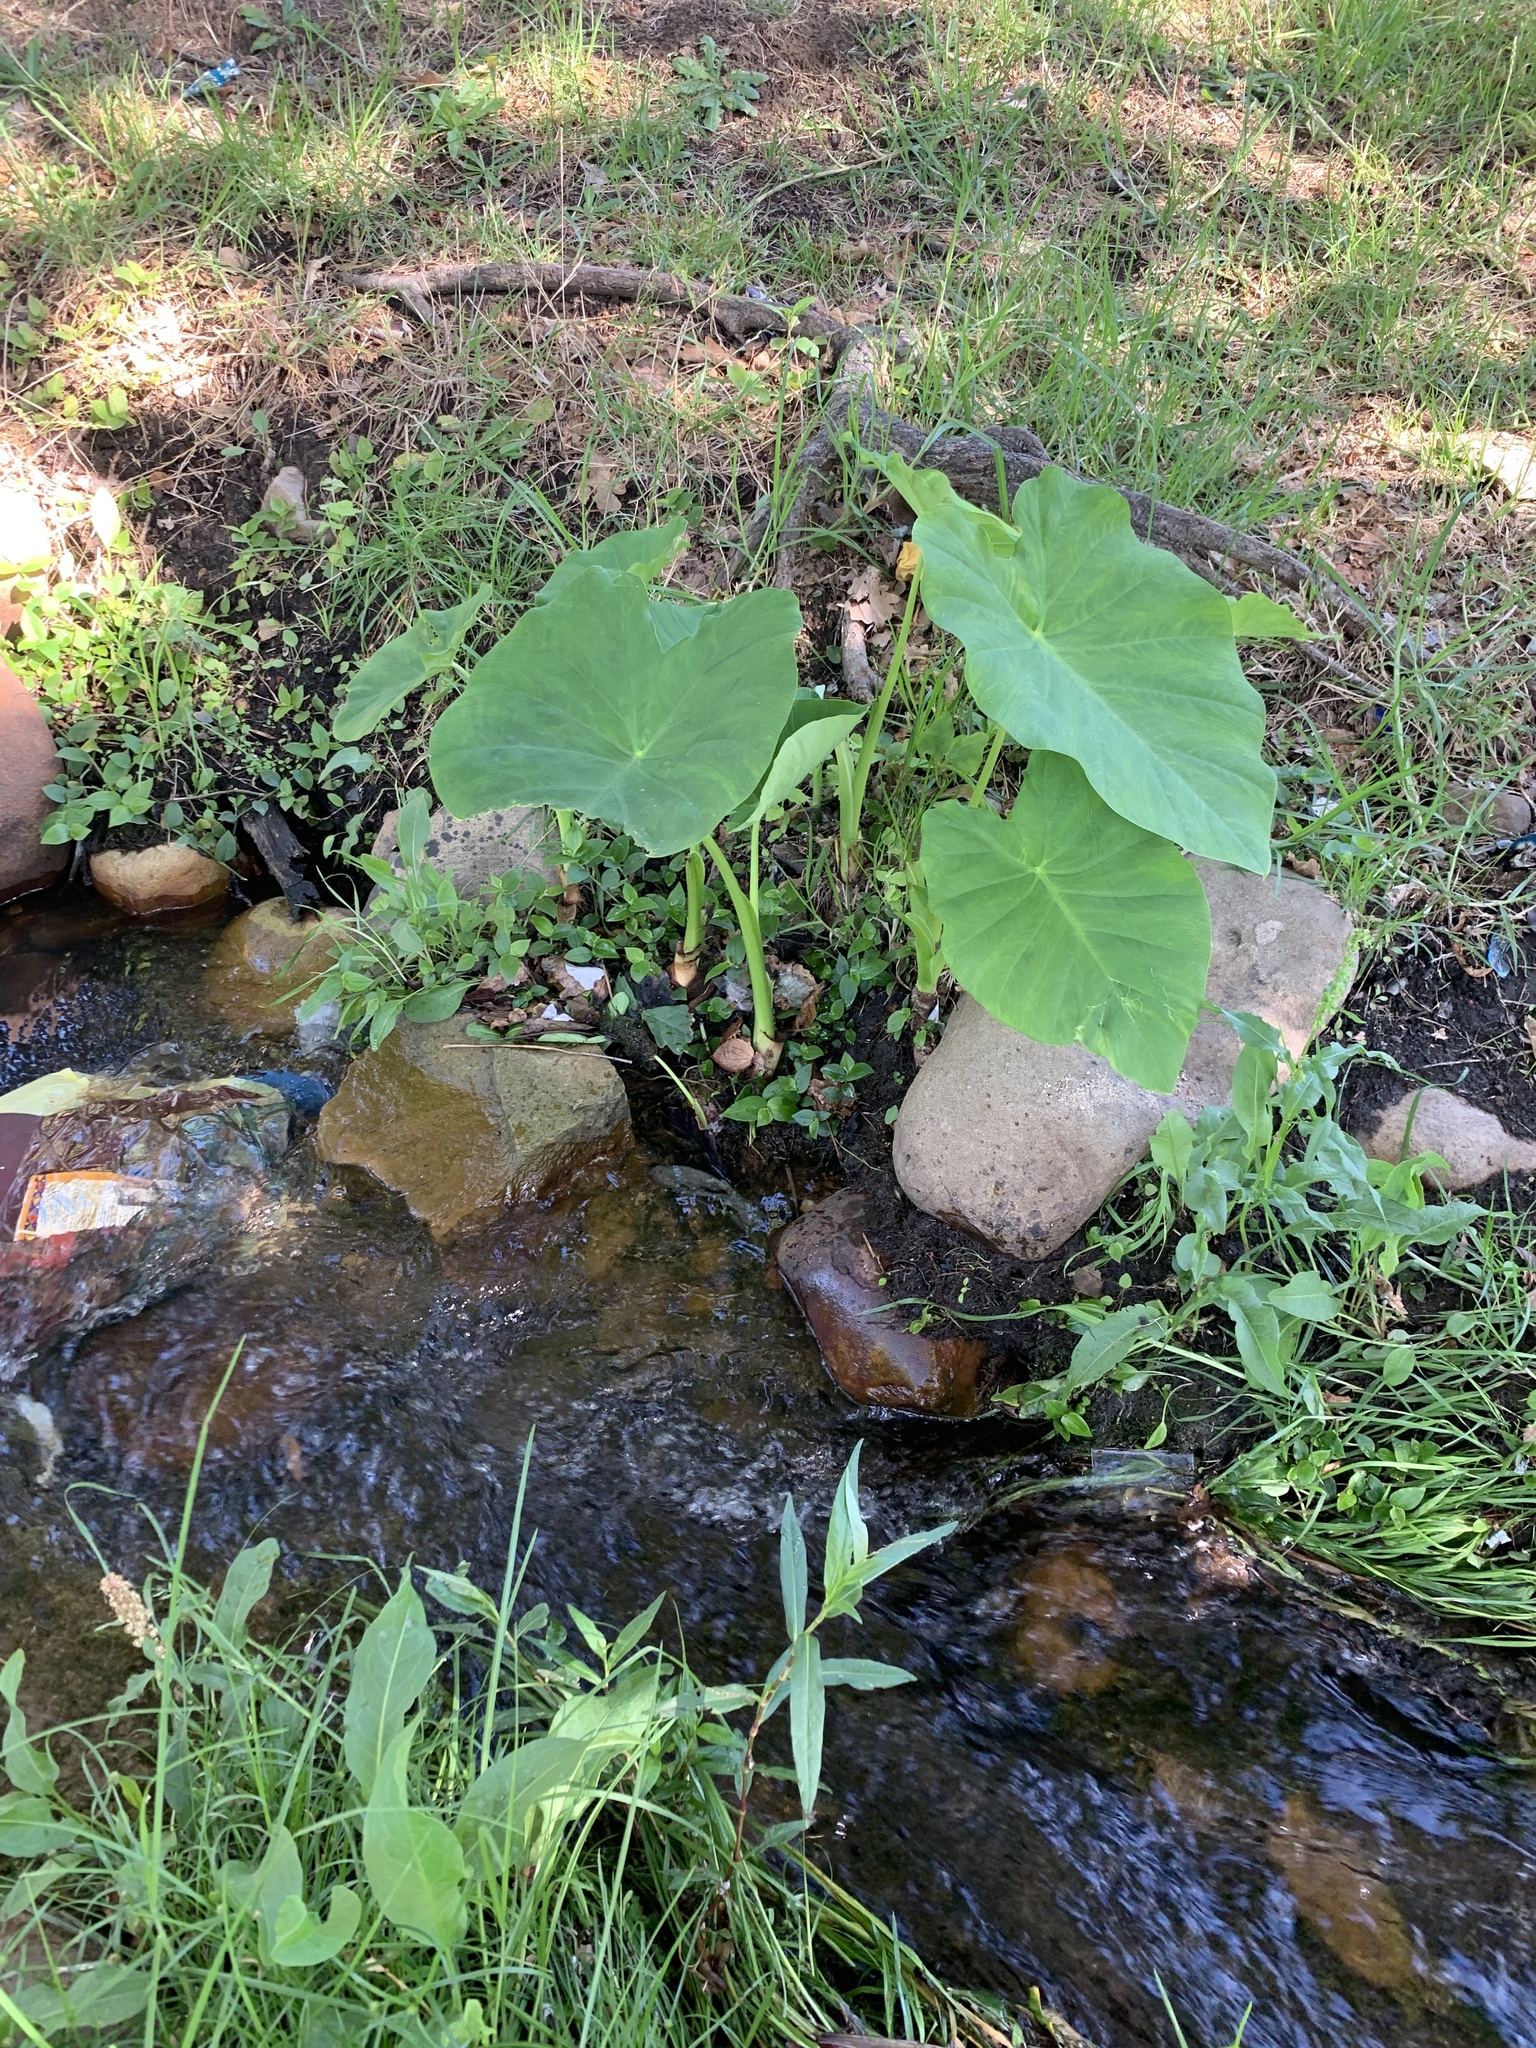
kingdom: Plantae
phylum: Tracheophyta
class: Liliopsida
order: Alismatales
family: Araceae
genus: Colocasia
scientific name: Colocasia esculenta
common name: Taro
